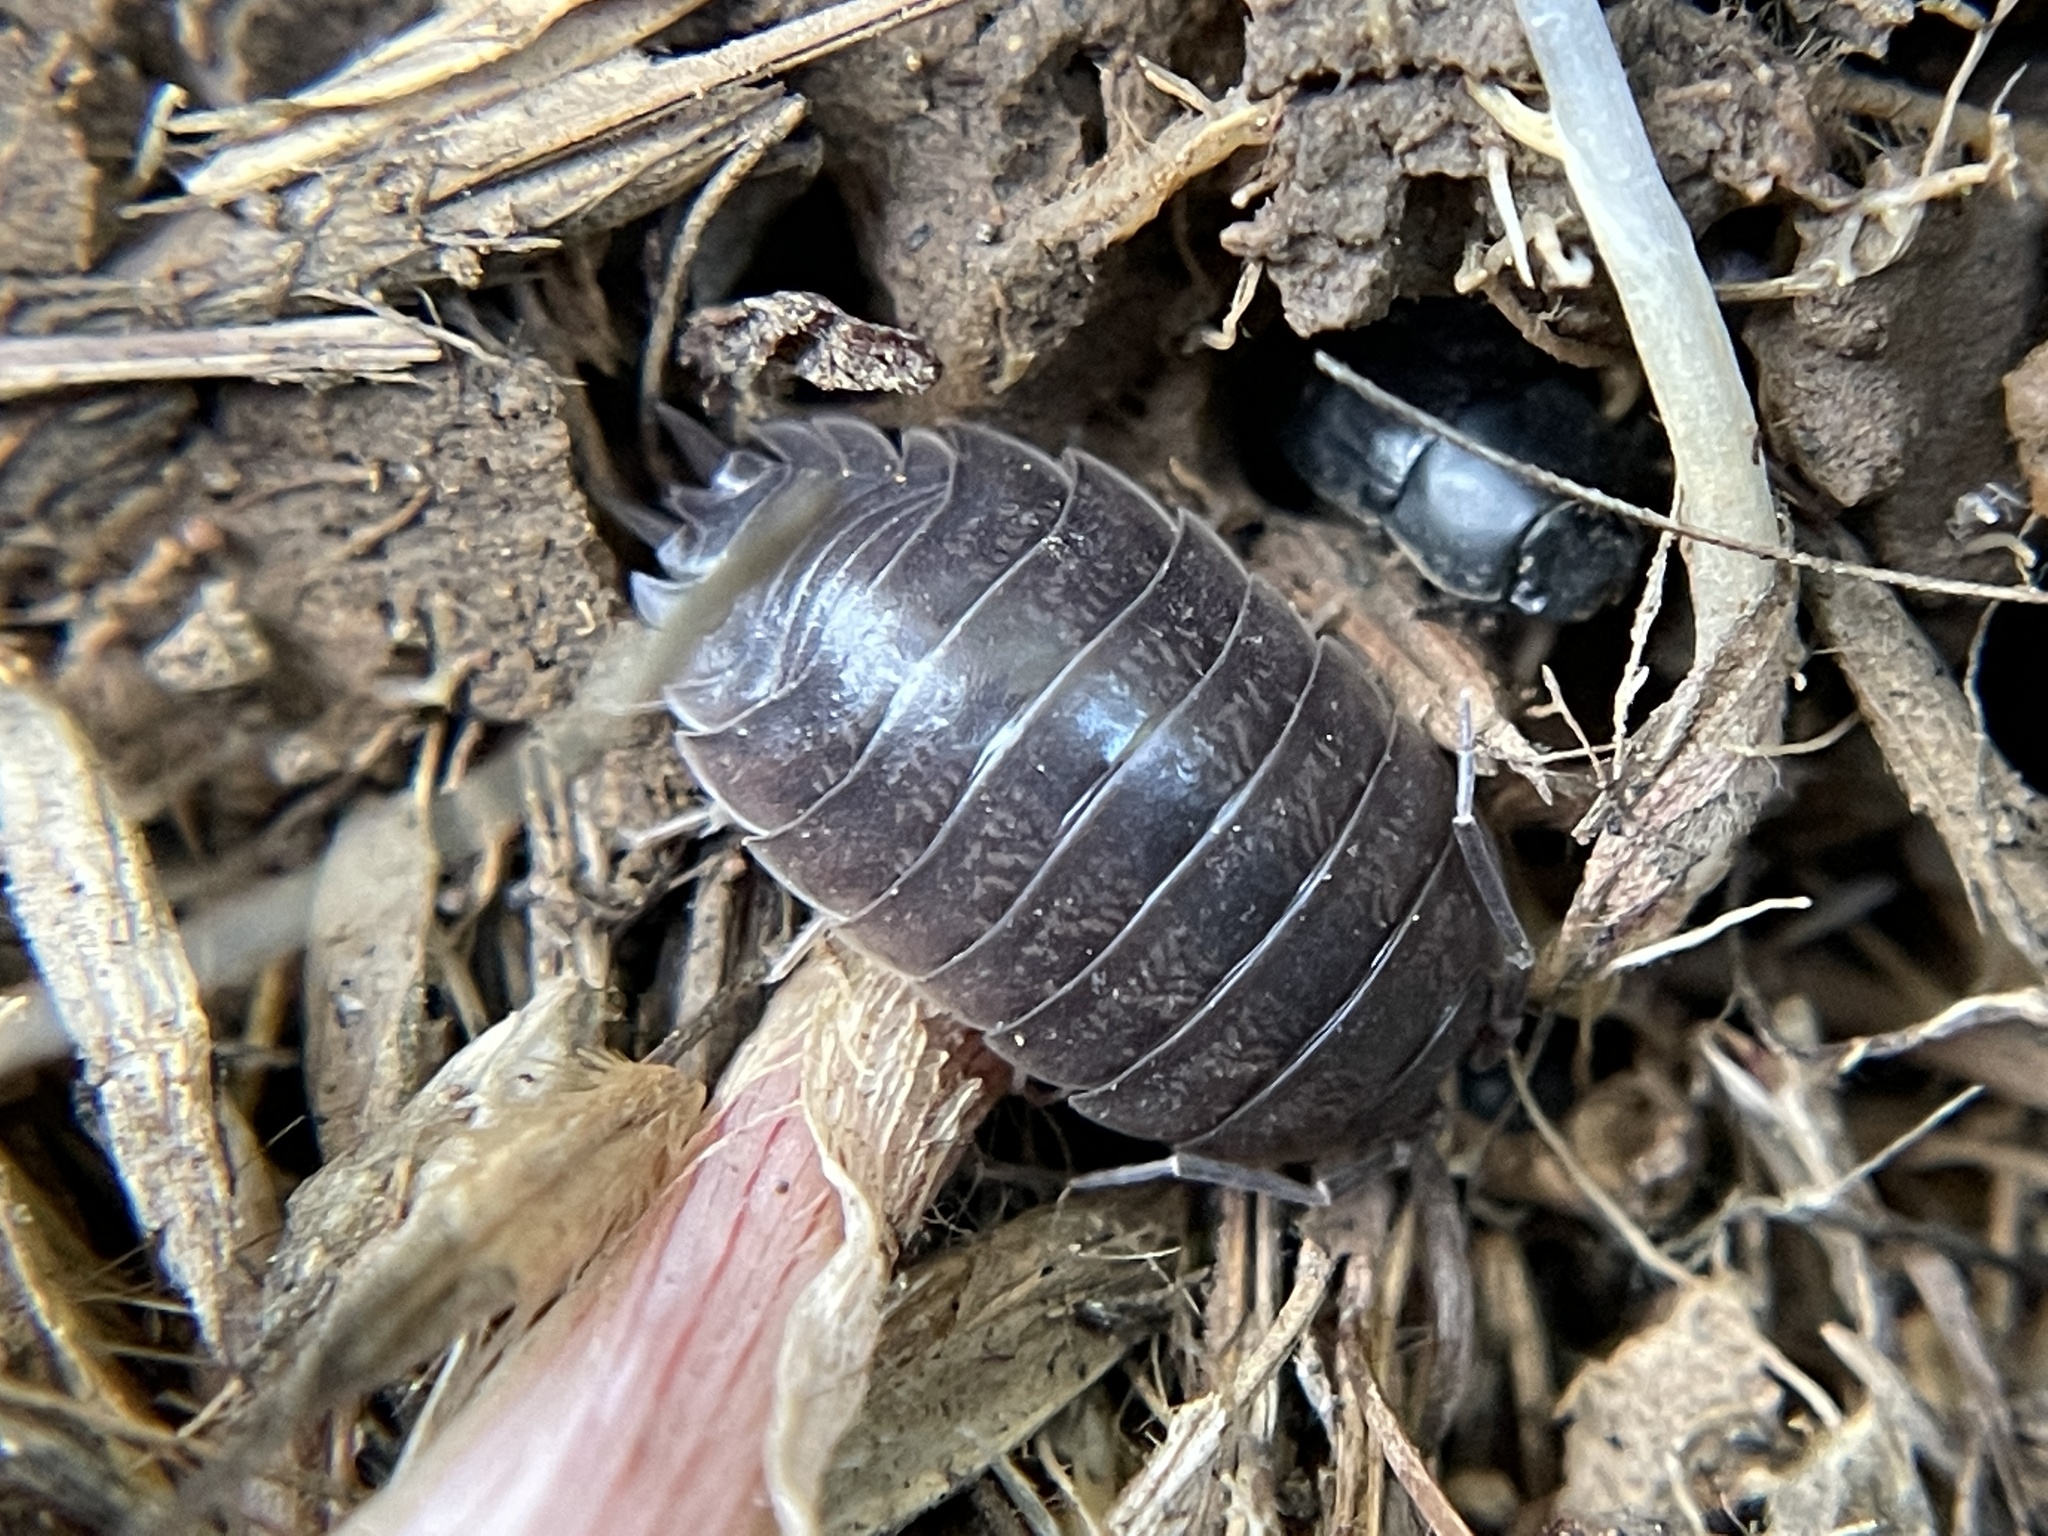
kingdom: Animalia
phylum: Arthropoda
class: Malacostraca
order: Isopoda
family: Porcellionidae
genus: Porcellio
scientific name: Porcellio laevis
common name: Swift woodlouse
